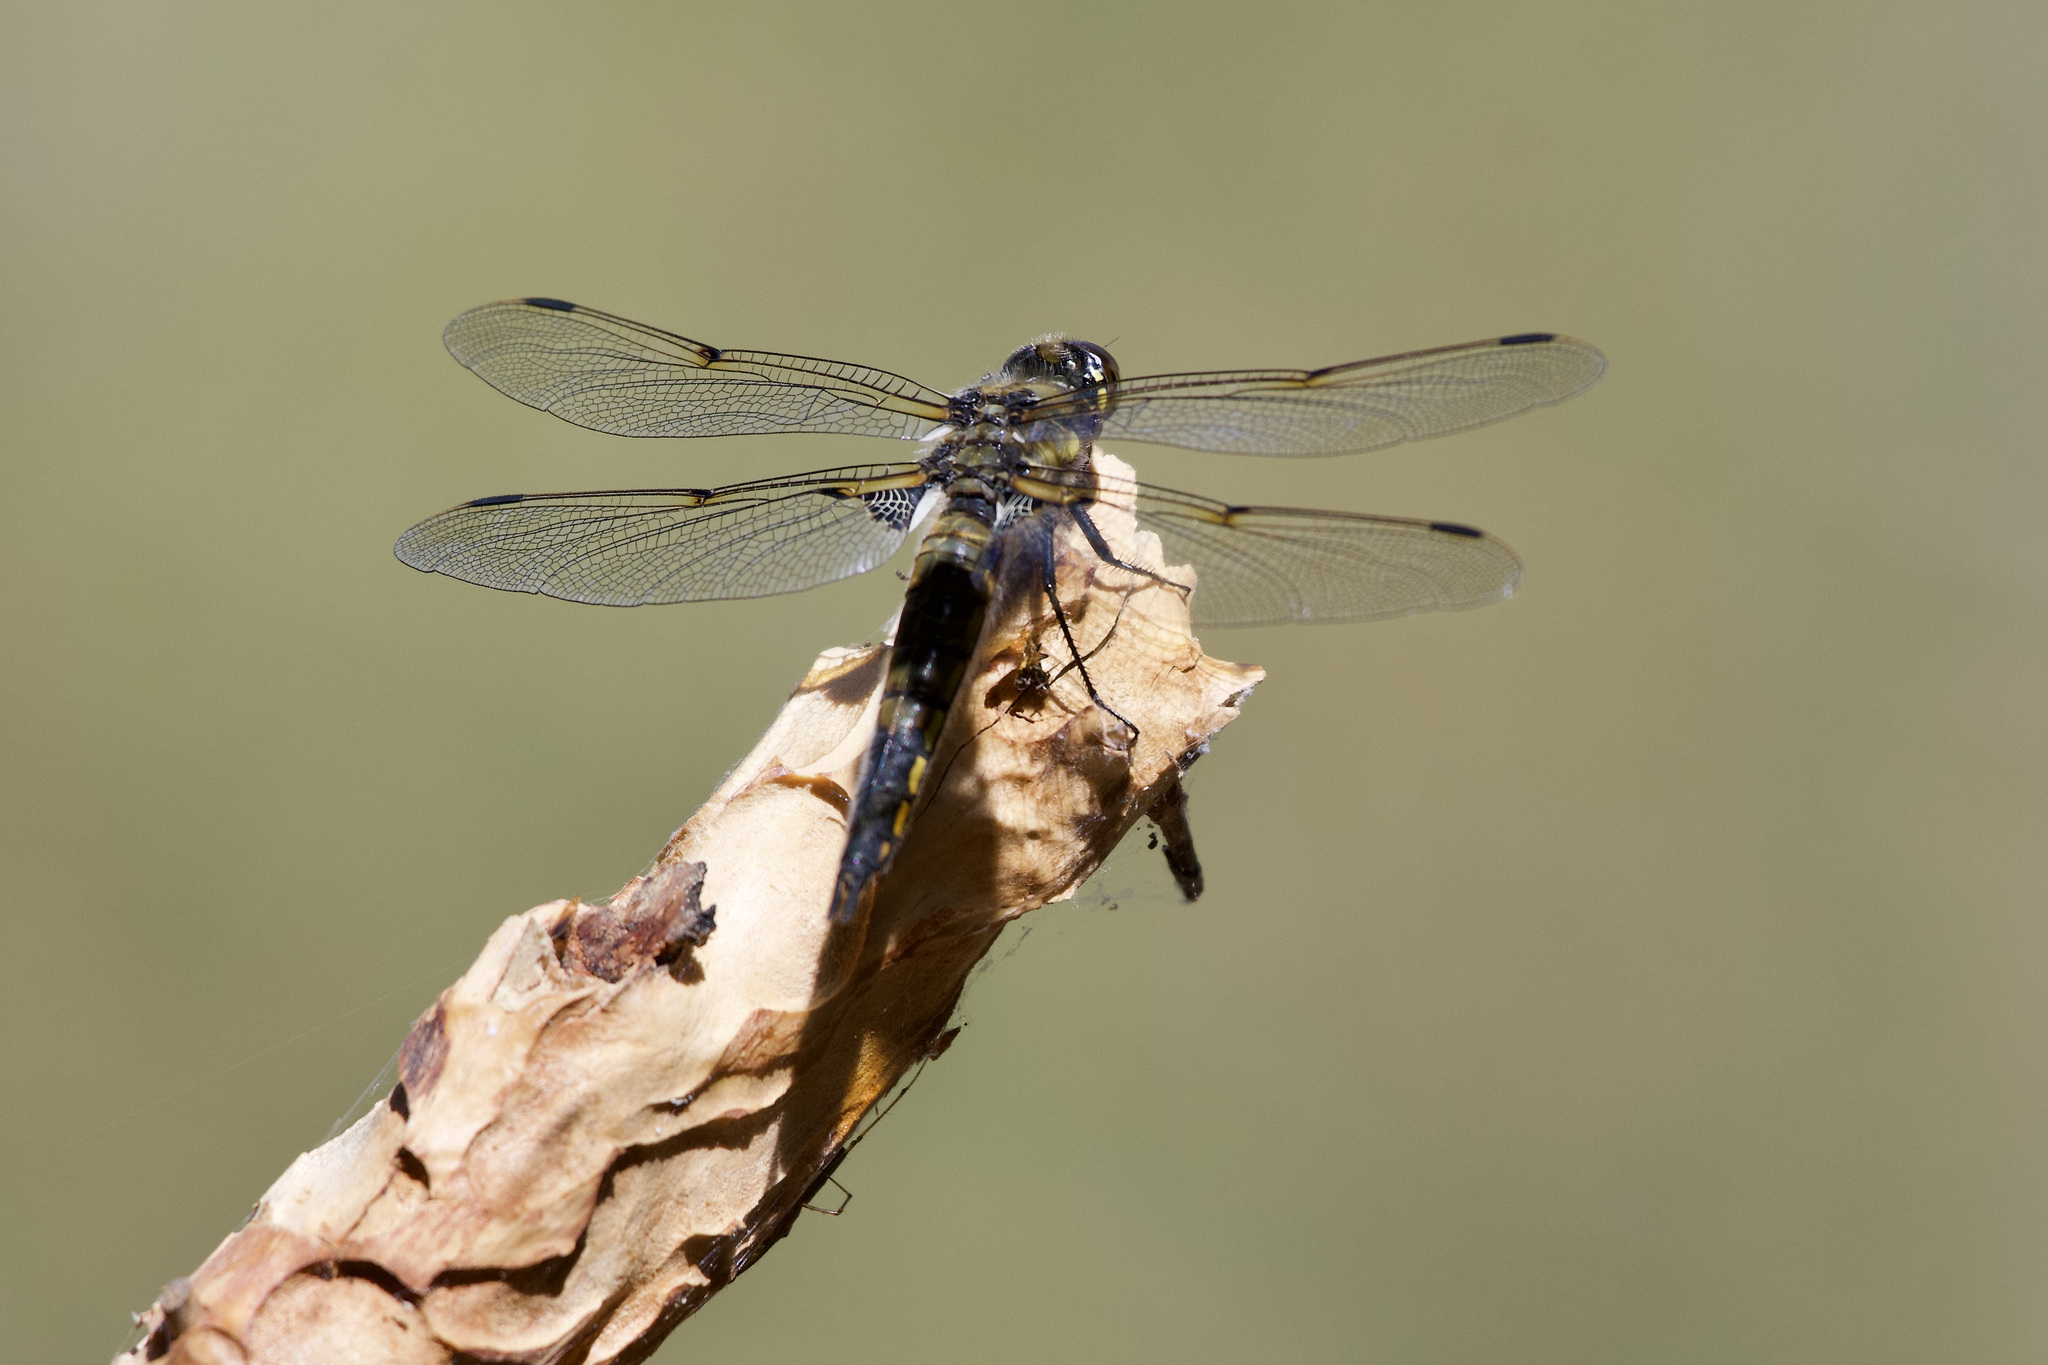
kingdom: Animalia
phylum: Arthropoda
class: Insecta
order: Odonata
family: Libellulidae
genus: Libellula
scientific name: Libellula quadrimaculata
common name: Four-spotted chaser
